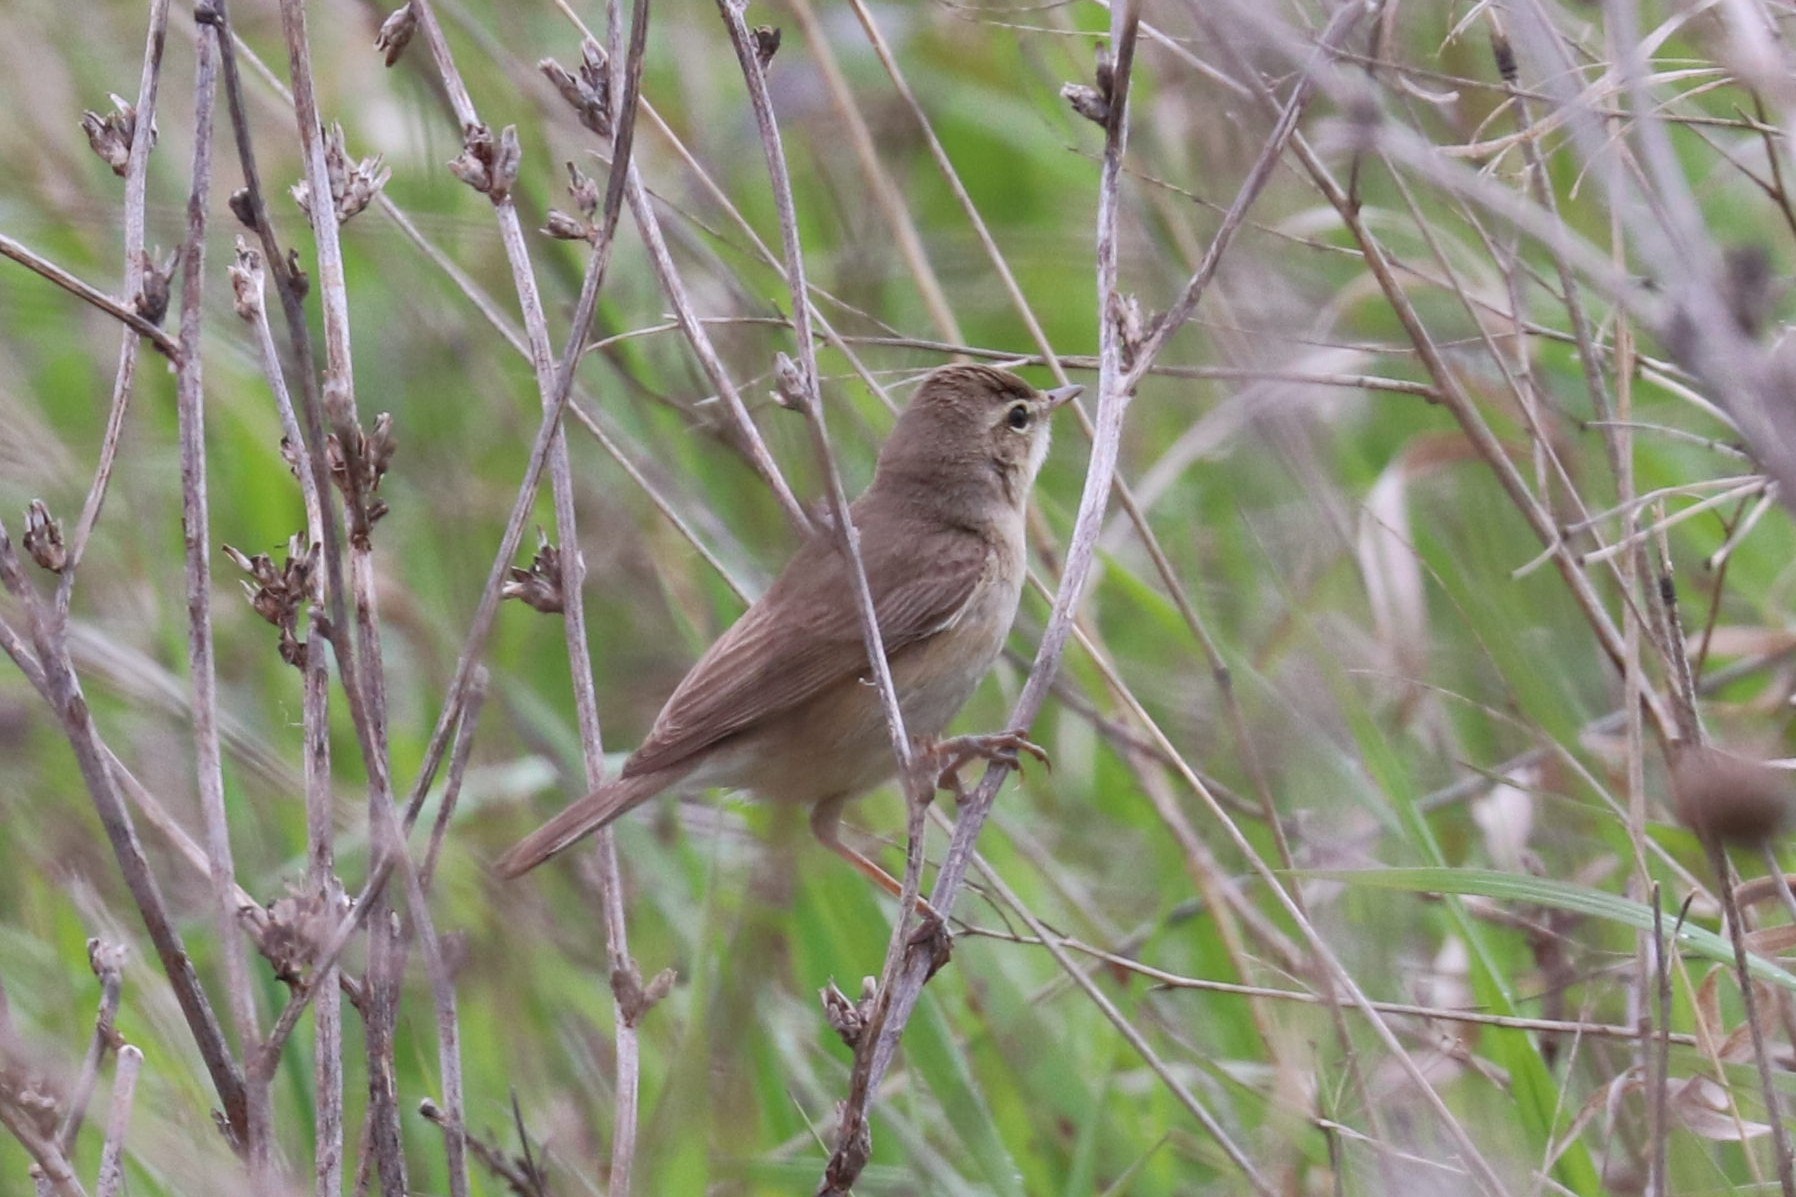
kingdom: Animalia
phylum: Chordata
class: Aves
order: Passeriformes
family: Acrocephalidae
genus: Iduna
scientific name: Iduna caligata
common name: Booted warbler
